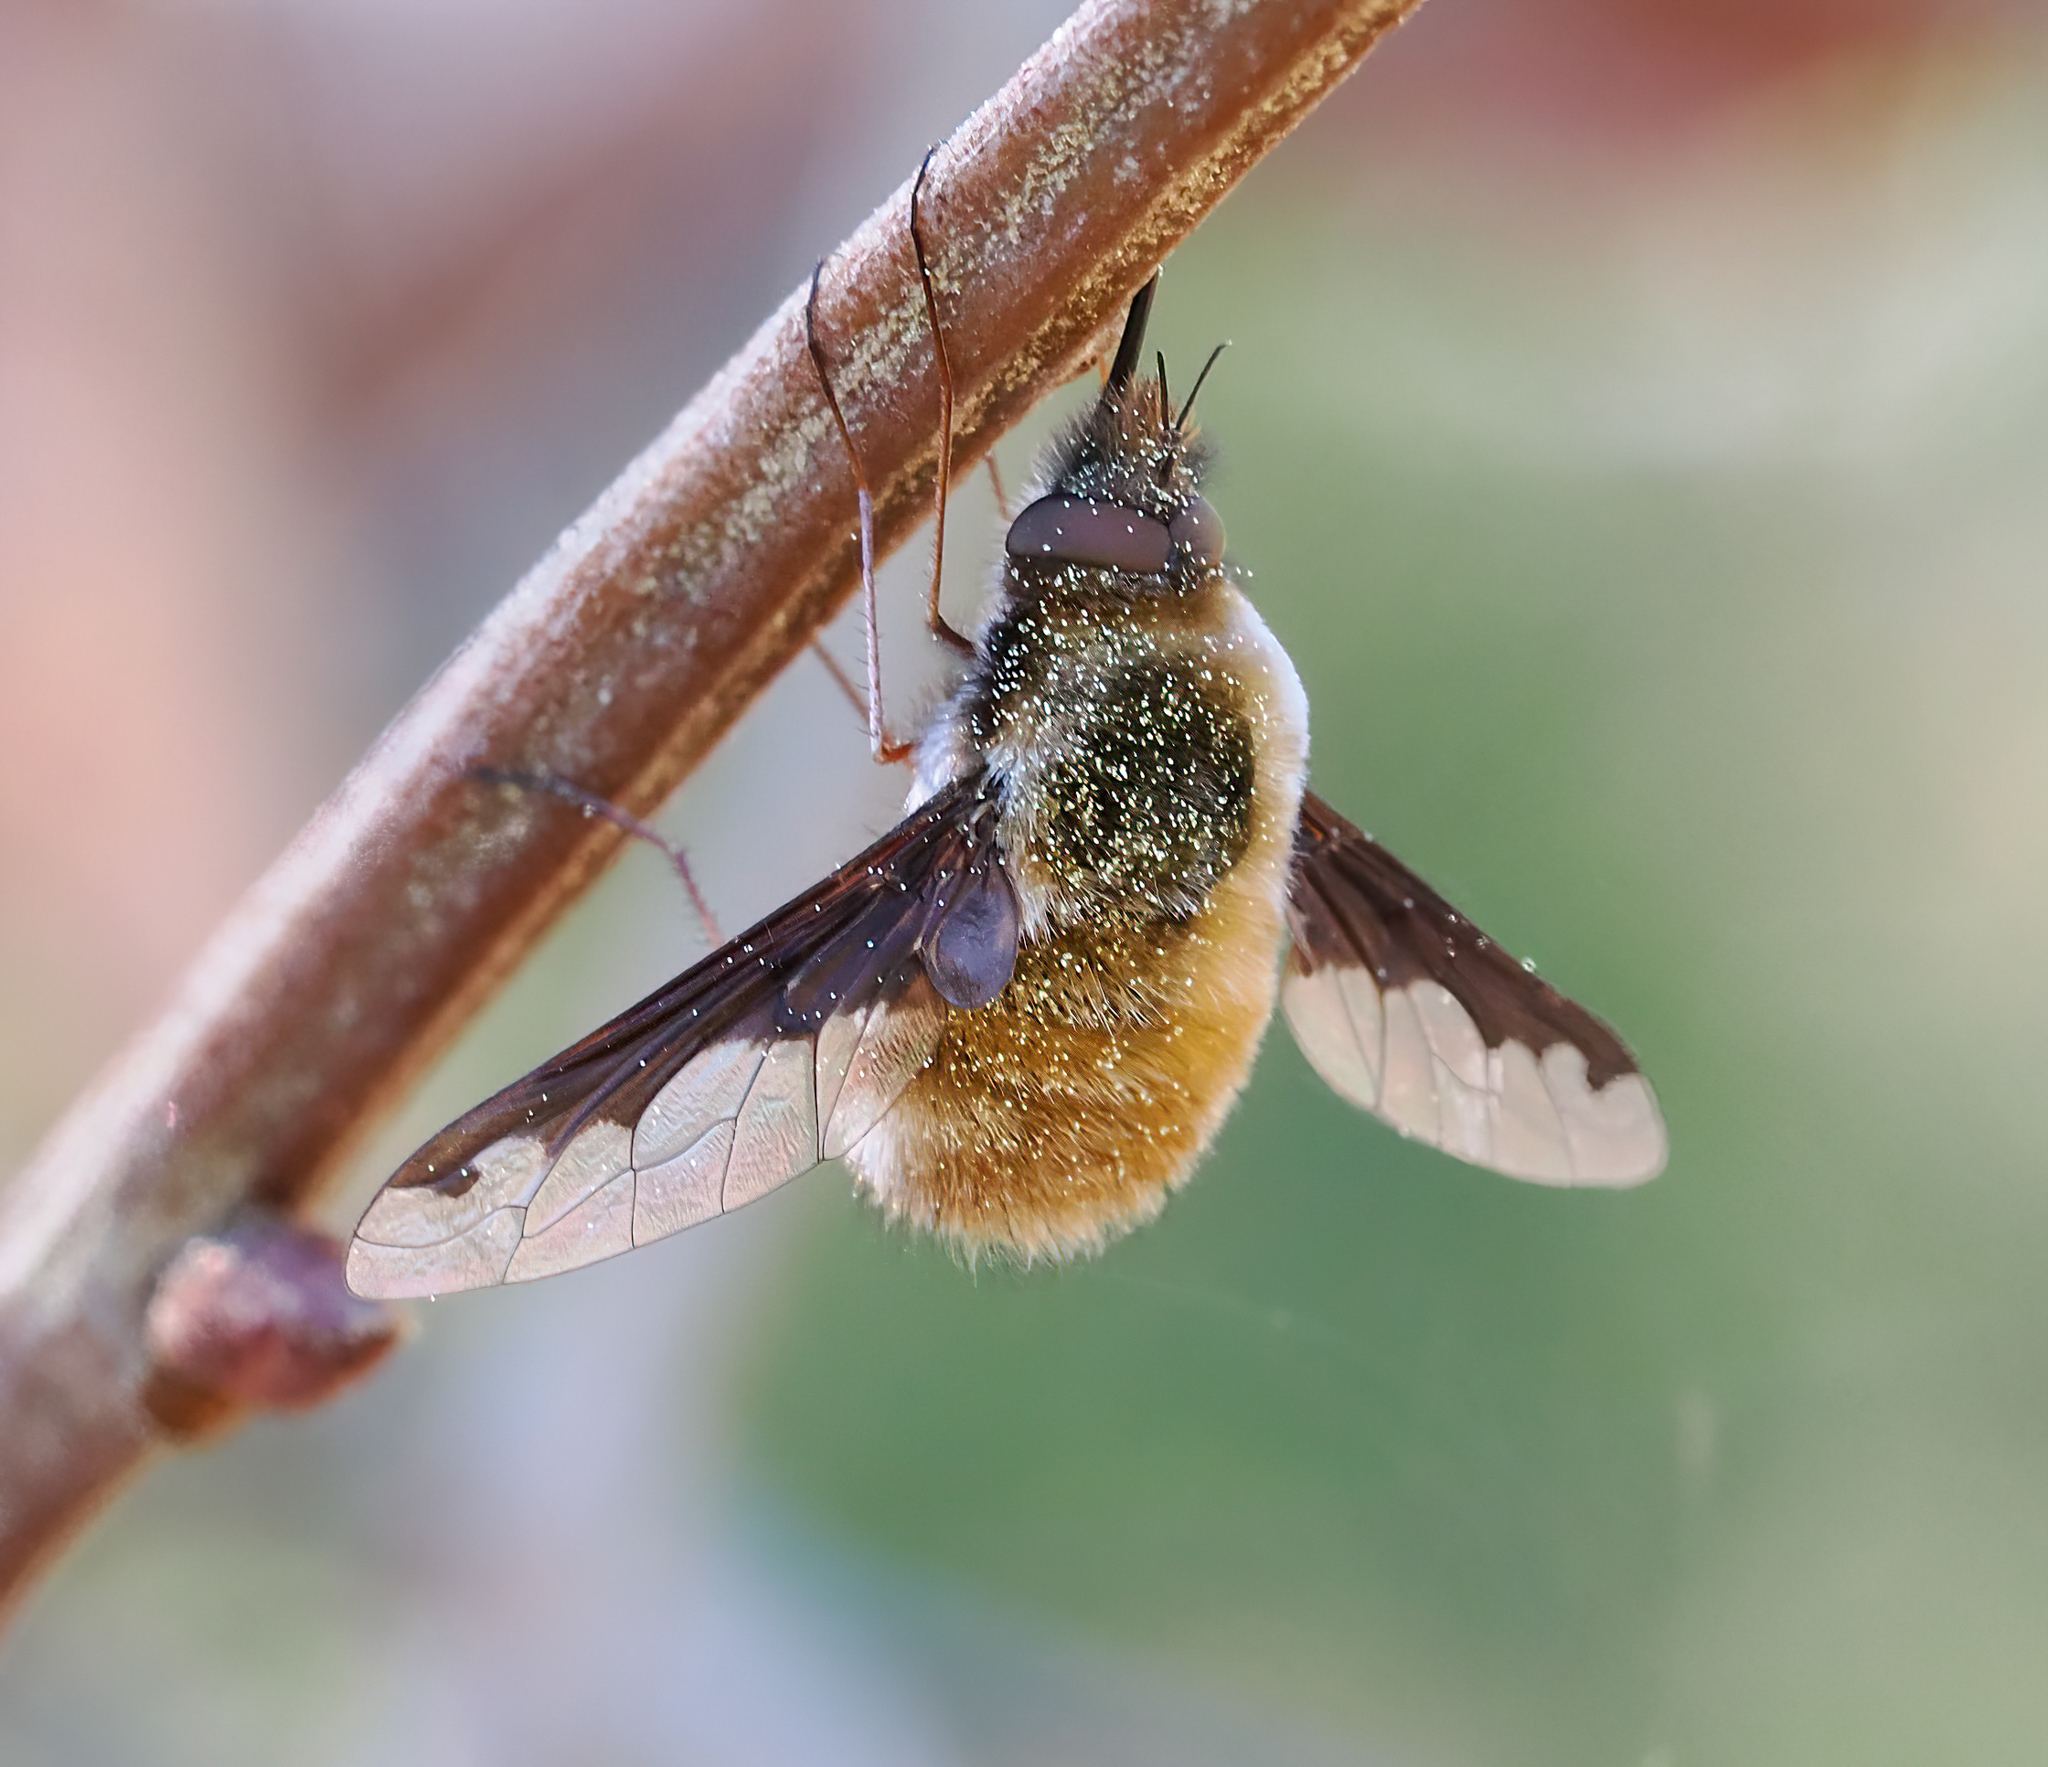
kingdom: Animalia
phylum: Arthropoda
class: Insecta
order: Diptera
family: Bombyliidae
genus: Bombylius
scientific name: Bombylius major
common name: Bee fly
